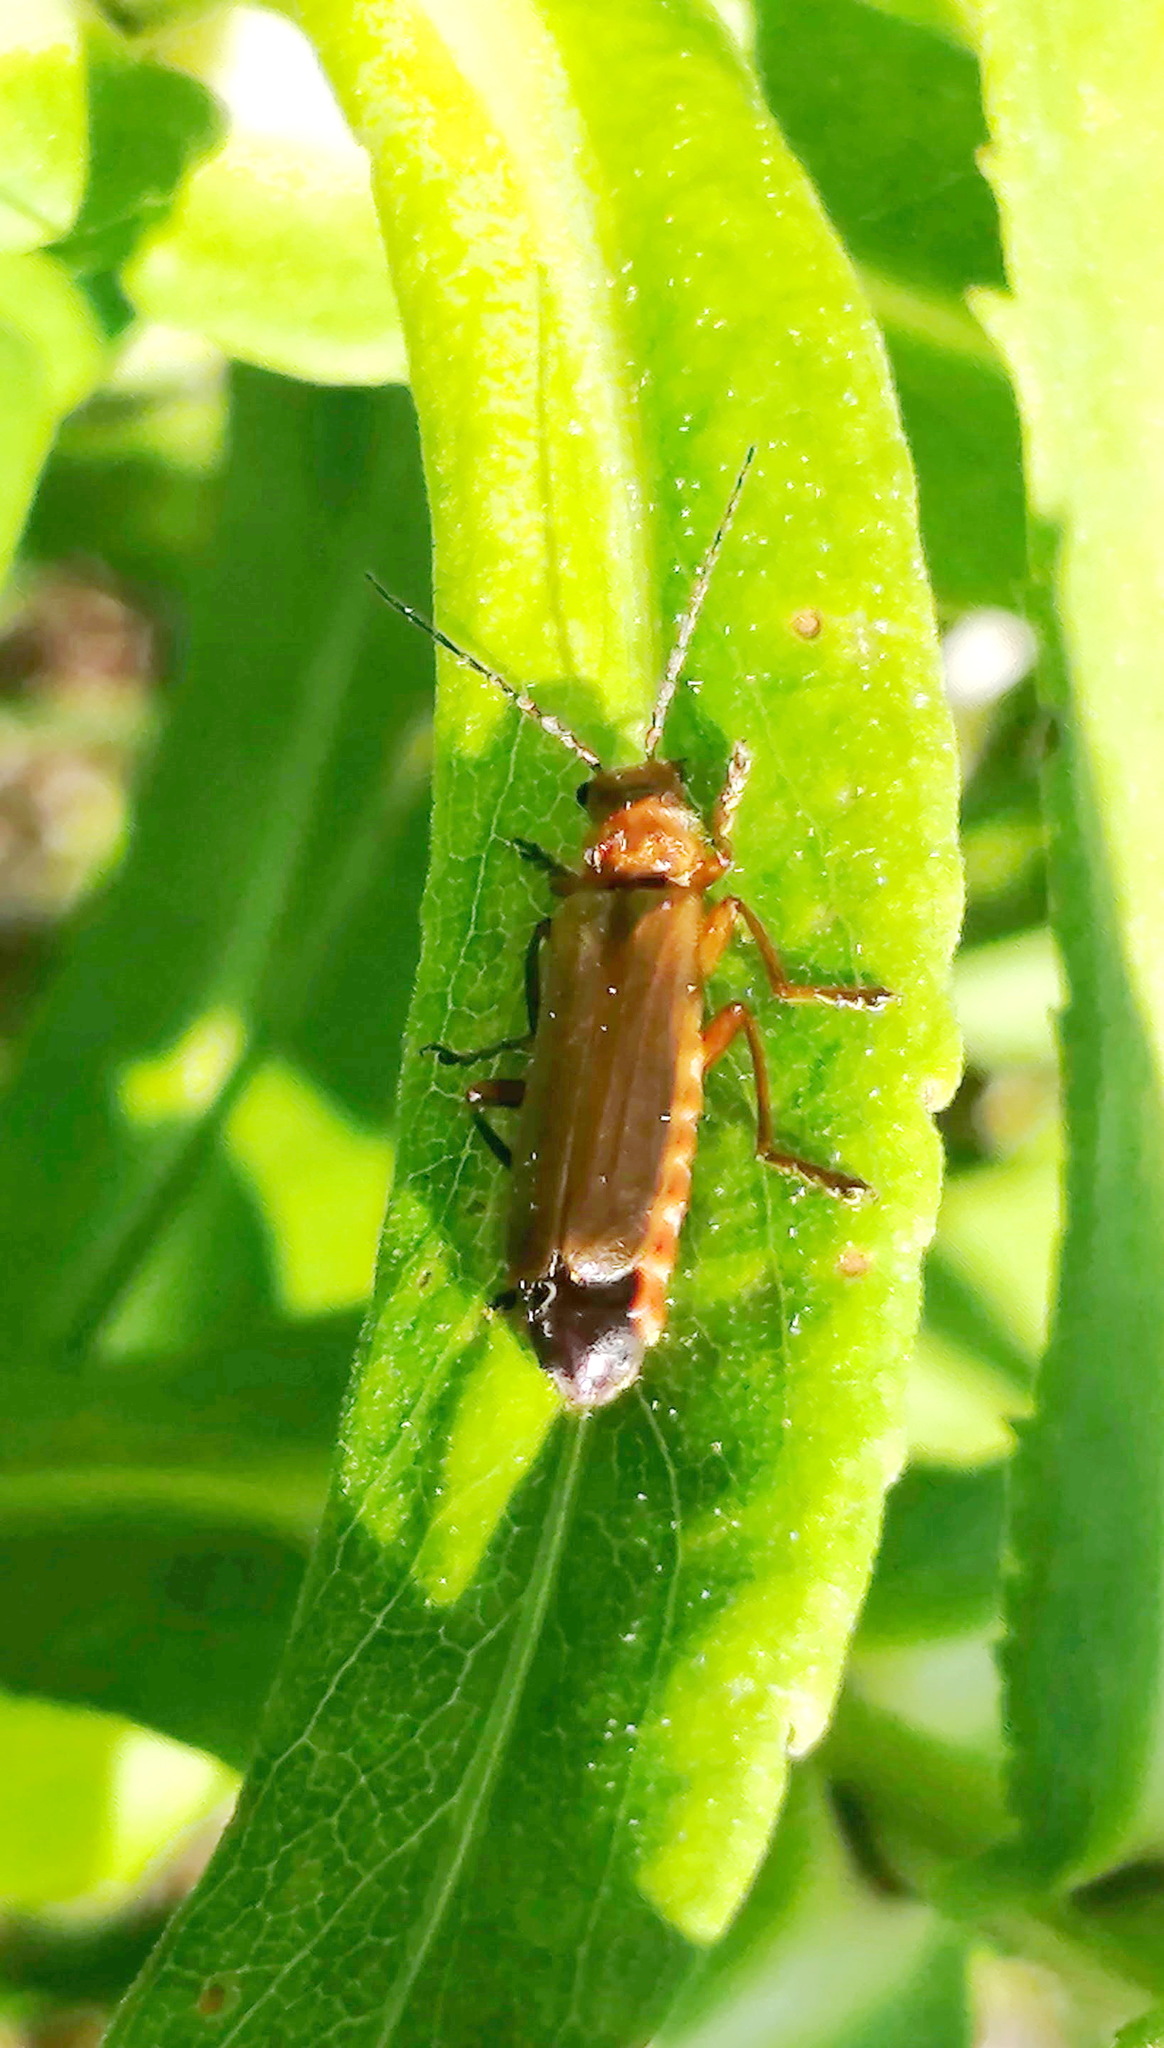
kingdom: Animalia
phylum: Arthropoda
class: Insecta
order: Coleoptera
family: Cantharidae
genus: Cantharis
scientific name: Cantharis rufa
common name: Red-spotted soldier beetle
